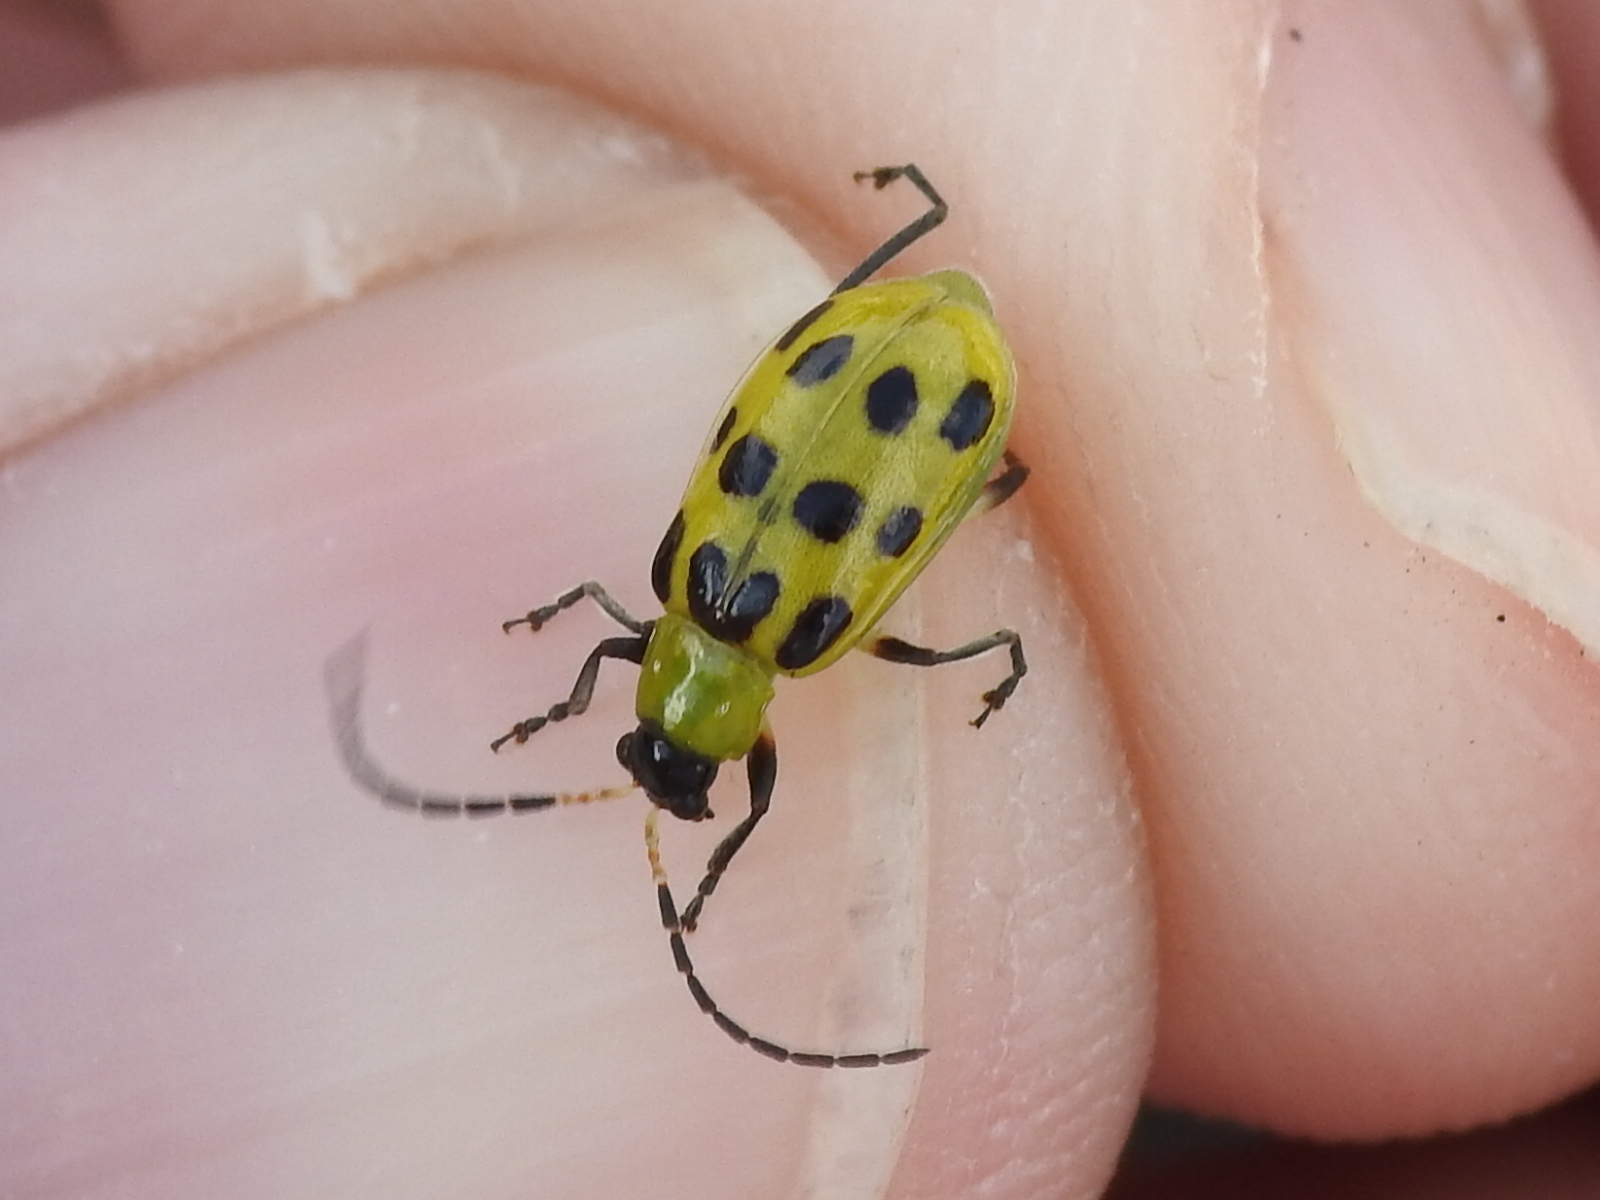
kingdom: Animalia
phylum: Arthropoda
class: Insecta
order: Coleoptera
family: Chrysomelidae
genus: Diabrotica
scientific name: Diabrotica undecimpunctata
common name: Spotted cucumber beetle
